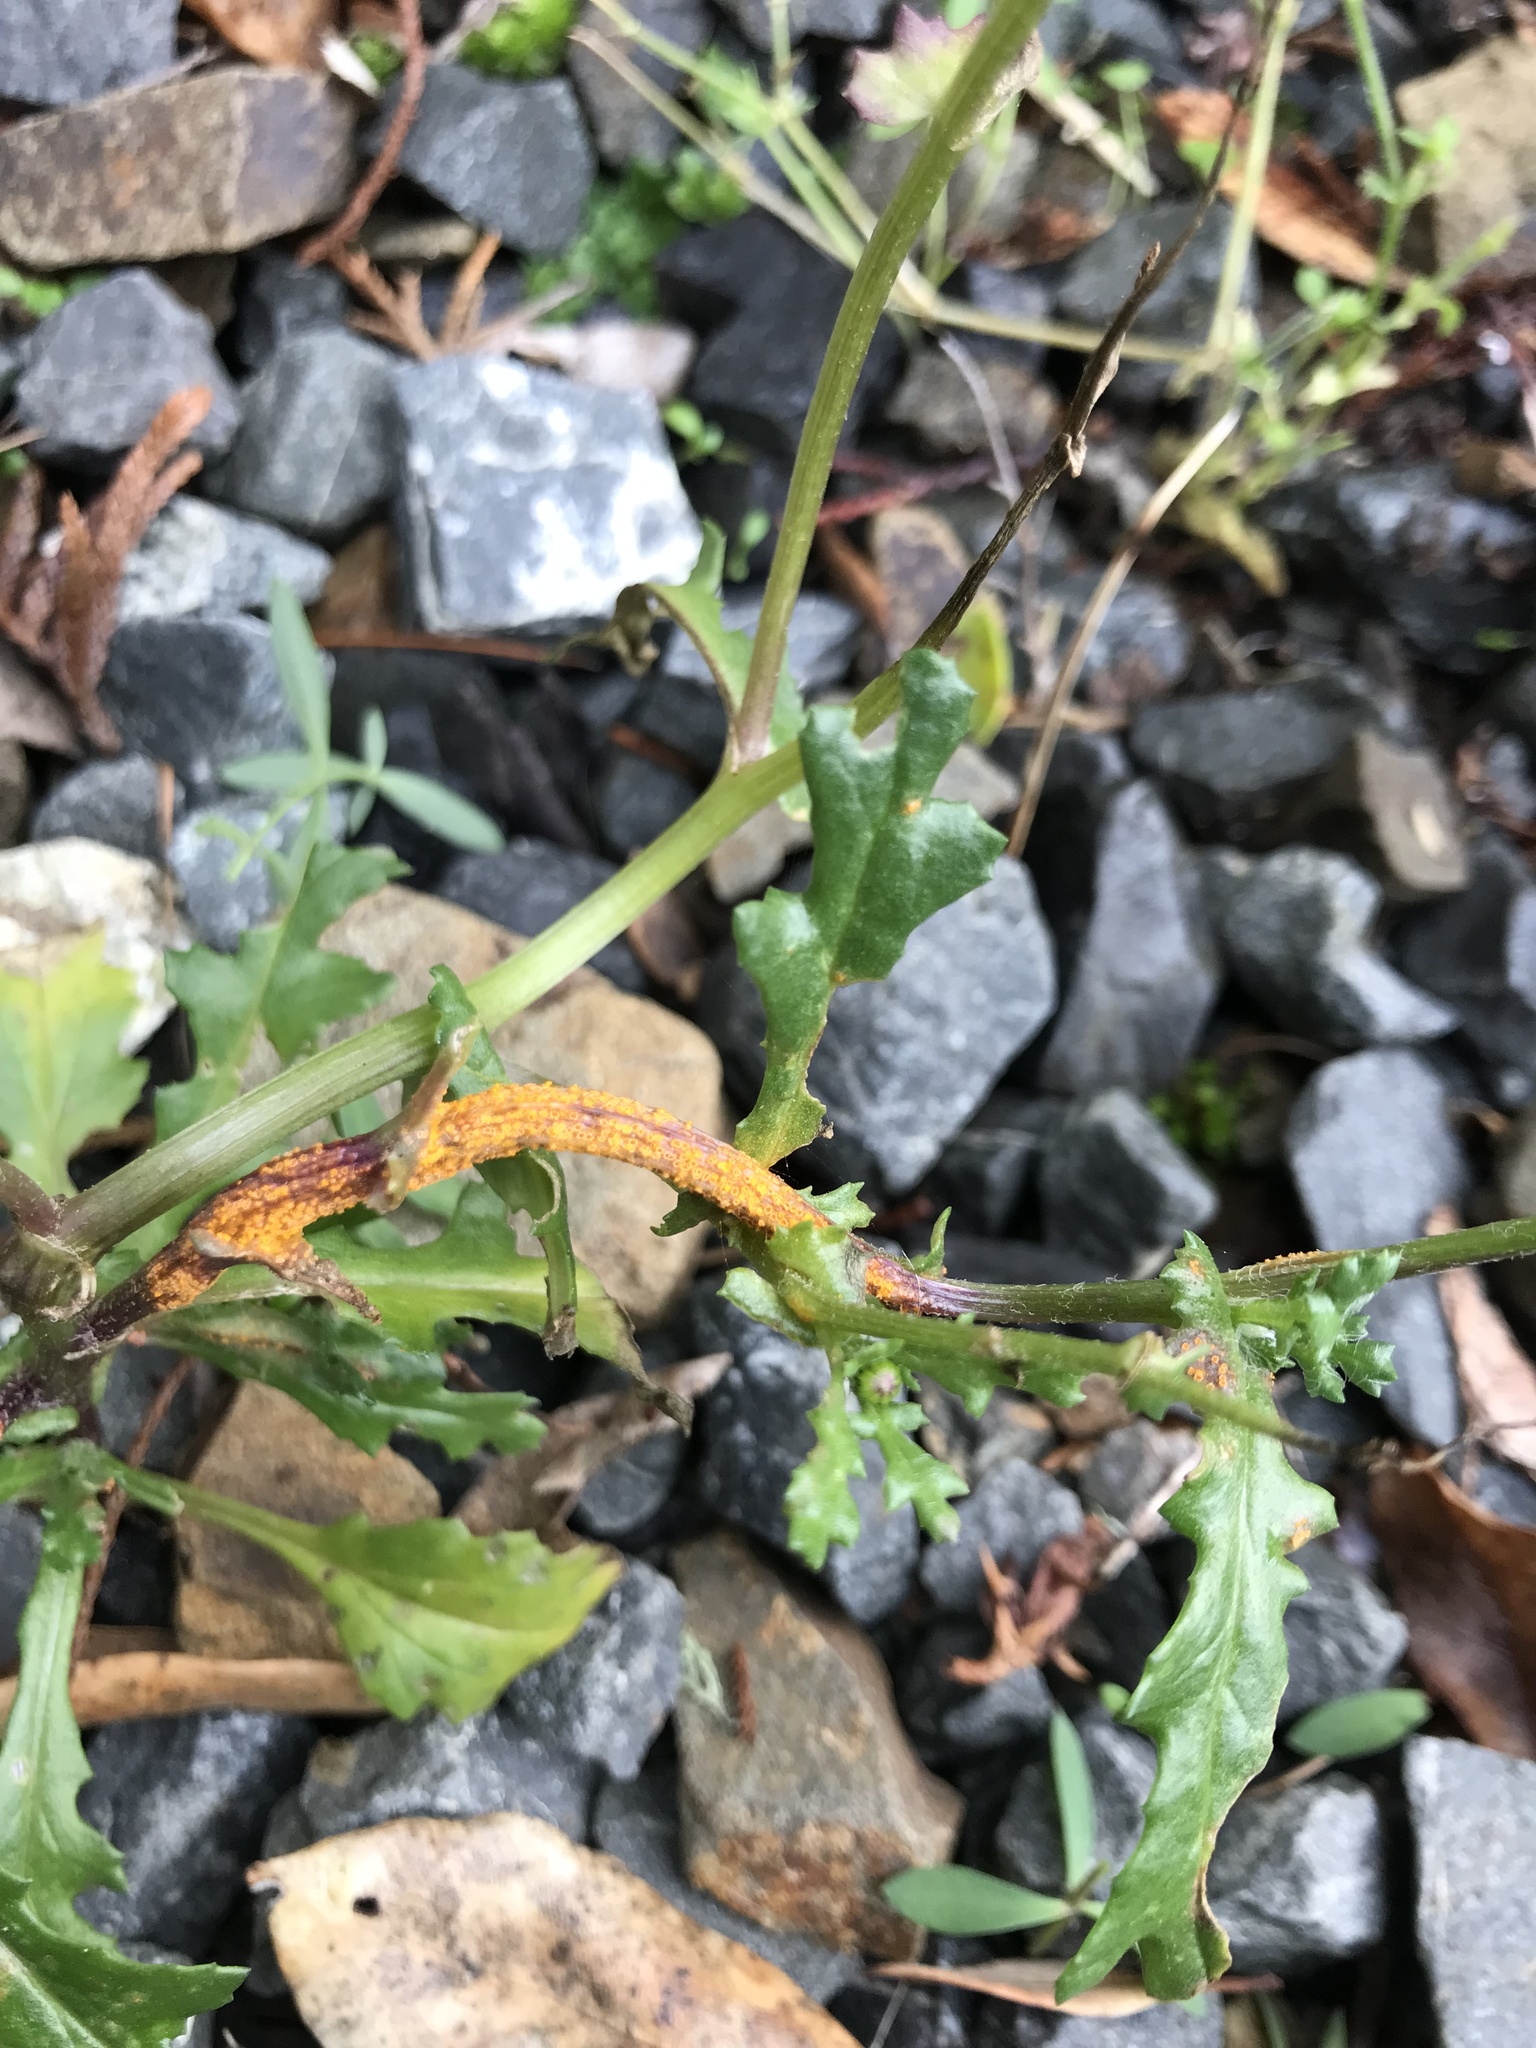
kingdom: Fungi
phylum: Basidiomycota
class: Pucciniomycetes
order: Pucciniales
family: Pucciniaceae
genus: Puccinia
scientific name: Puccinia lagenophorae
